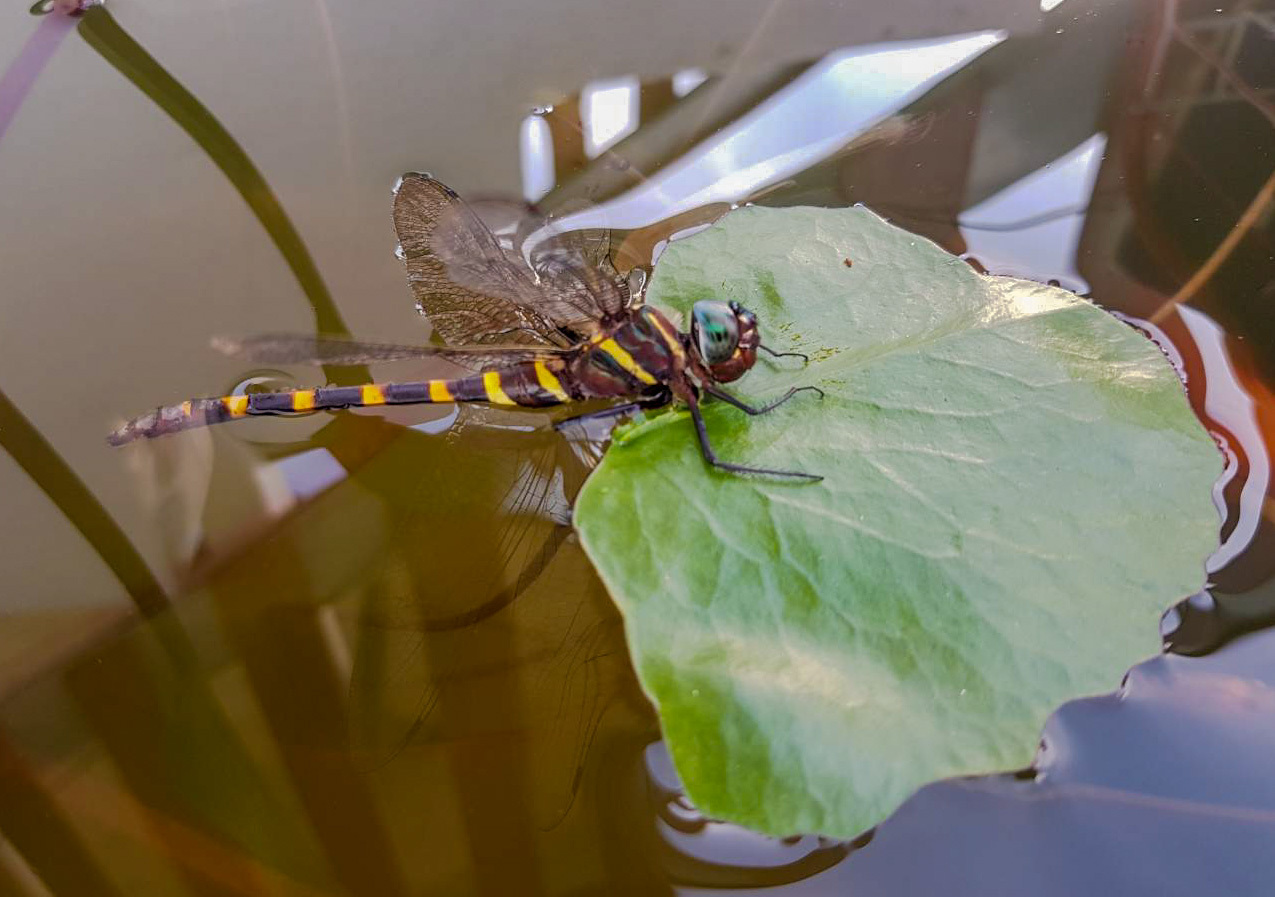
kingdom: Animalia
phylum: Arthropoda
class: Insecta
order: Odonata
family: Macromiidae
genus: Epophthalmia
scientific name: Epophthalmia frontalis
